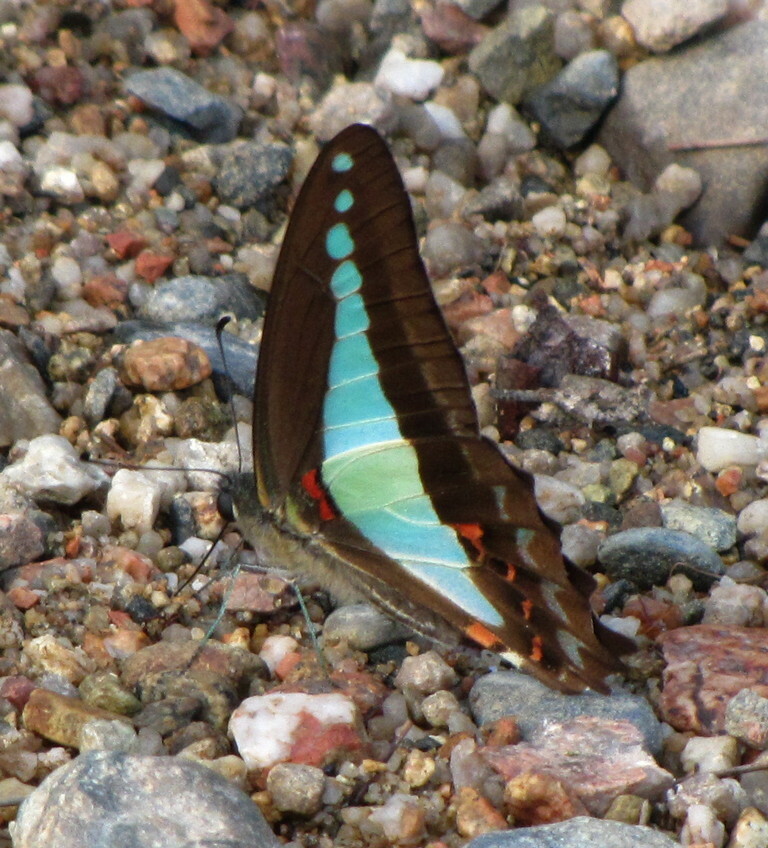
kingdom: Animalia
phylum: Arthropoda
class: Insecta
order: Lepidoptera
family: Papilionidae
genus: Graphium
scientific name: Graphium
